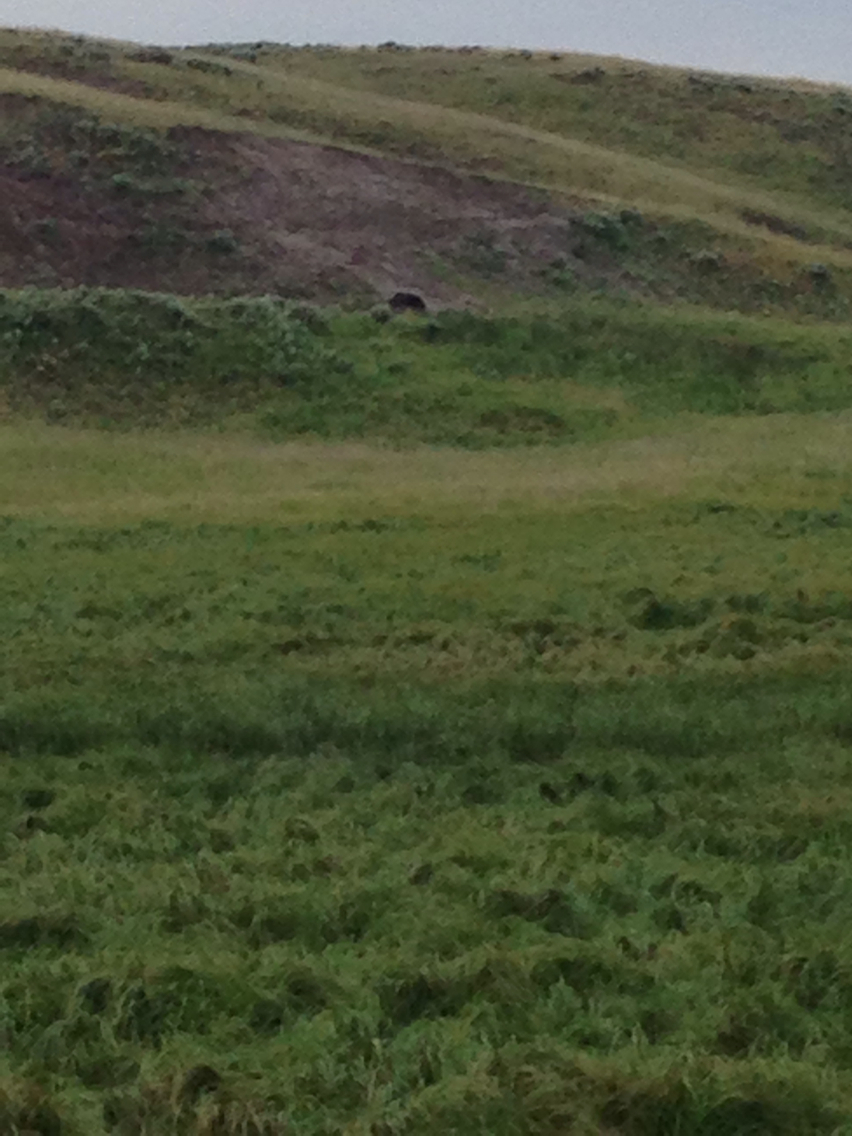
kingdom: Animalia
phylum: Chordata
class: Mammalia
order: Carnivora
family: Ursidae
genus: Ursus
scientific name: Ursus arctos
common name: Brown bear
